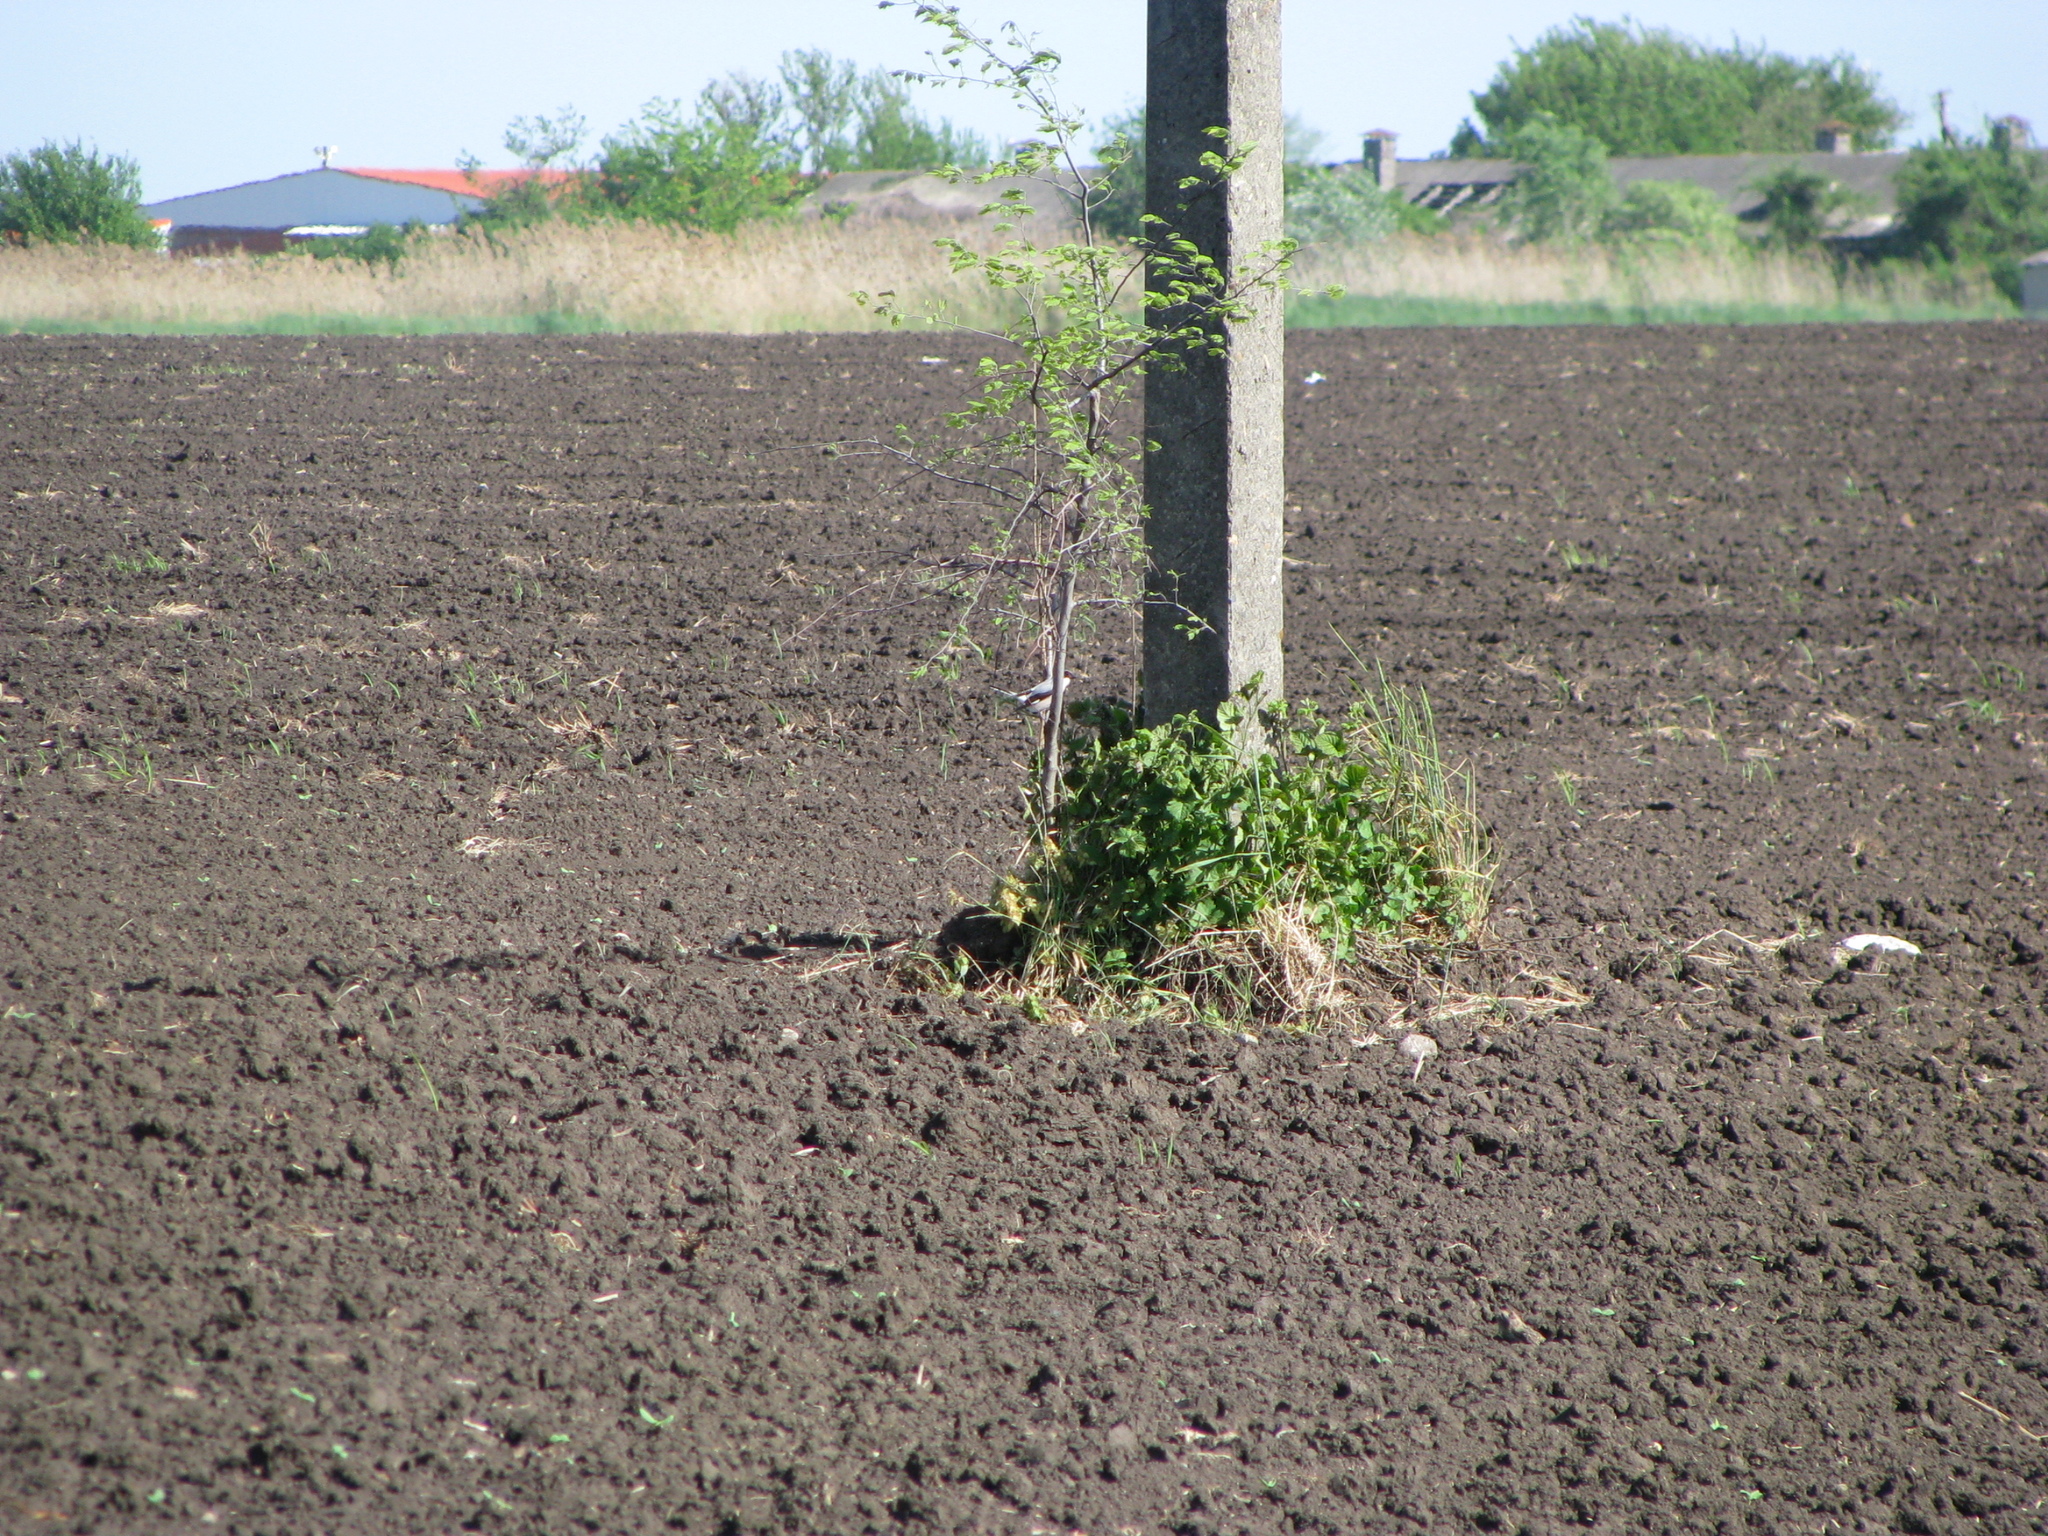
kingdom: Animalia
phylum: Chordata
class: Aves
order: Passeriformes
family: Laniidae
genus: Lanius
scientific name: Lanius minor
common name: Lesser grey shrike
